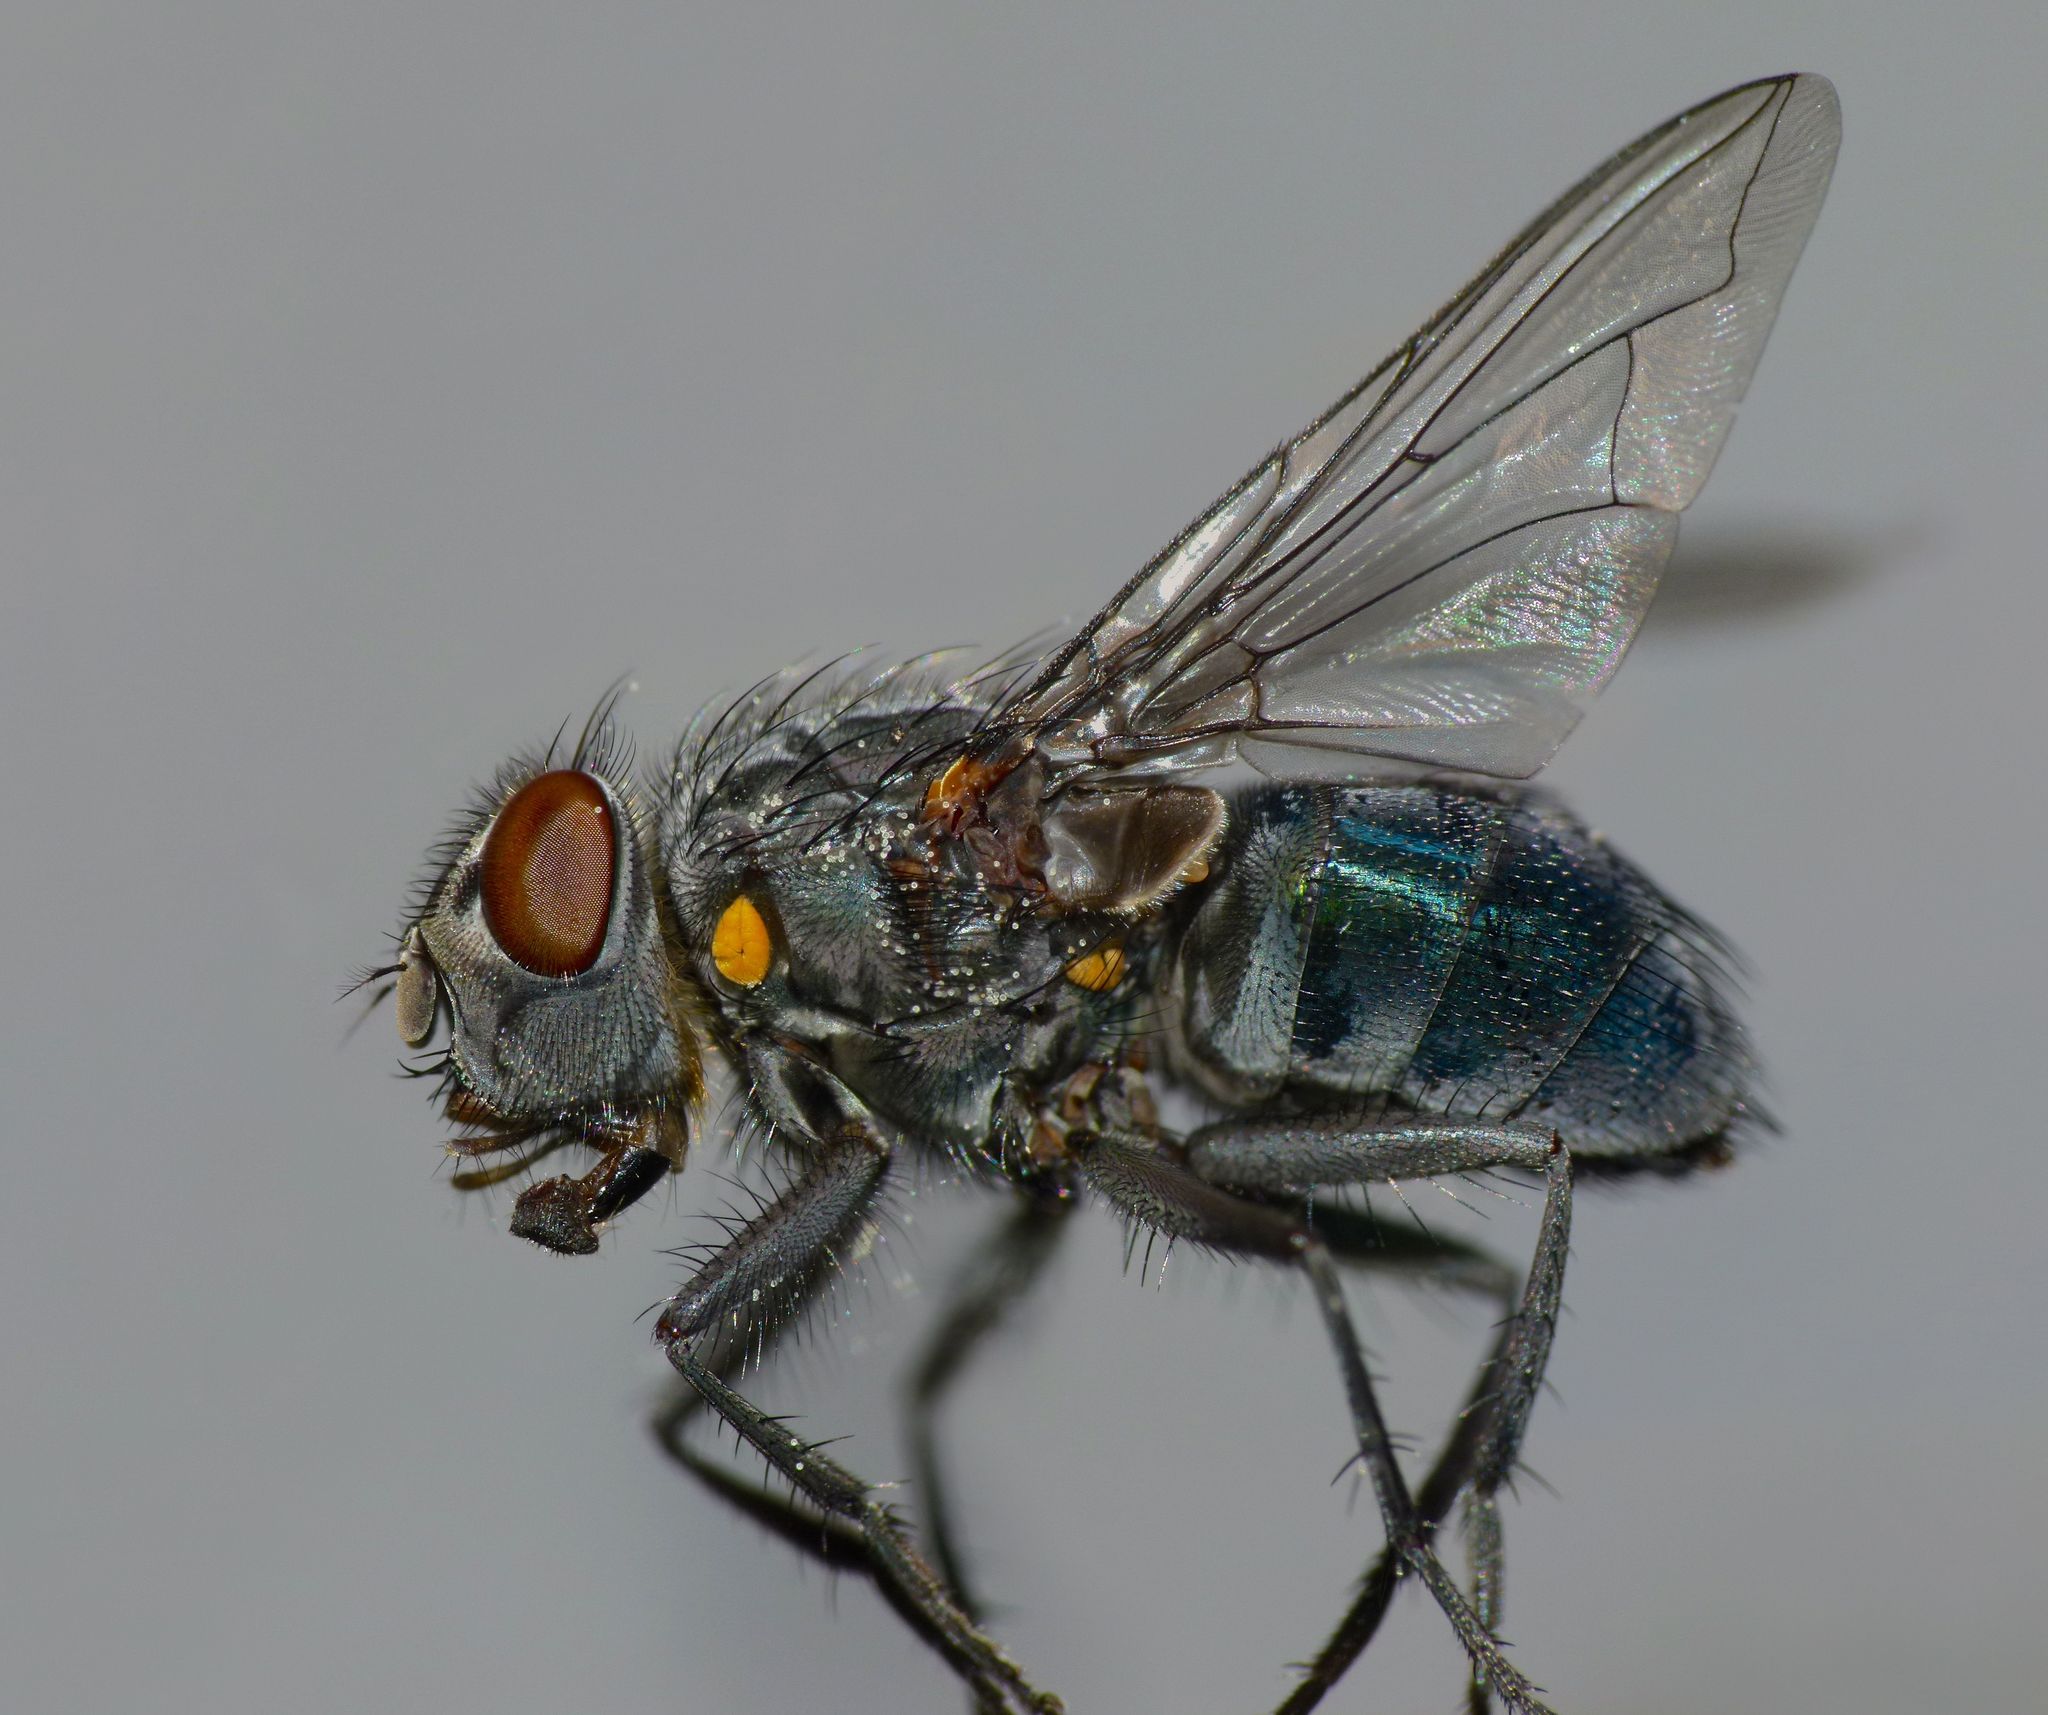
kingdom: Animalia
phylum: Arthropoda
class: Insecta
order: Diptera
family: Calliphoridae
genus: Ptilonesia
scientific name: Ptilonesia auronotata
